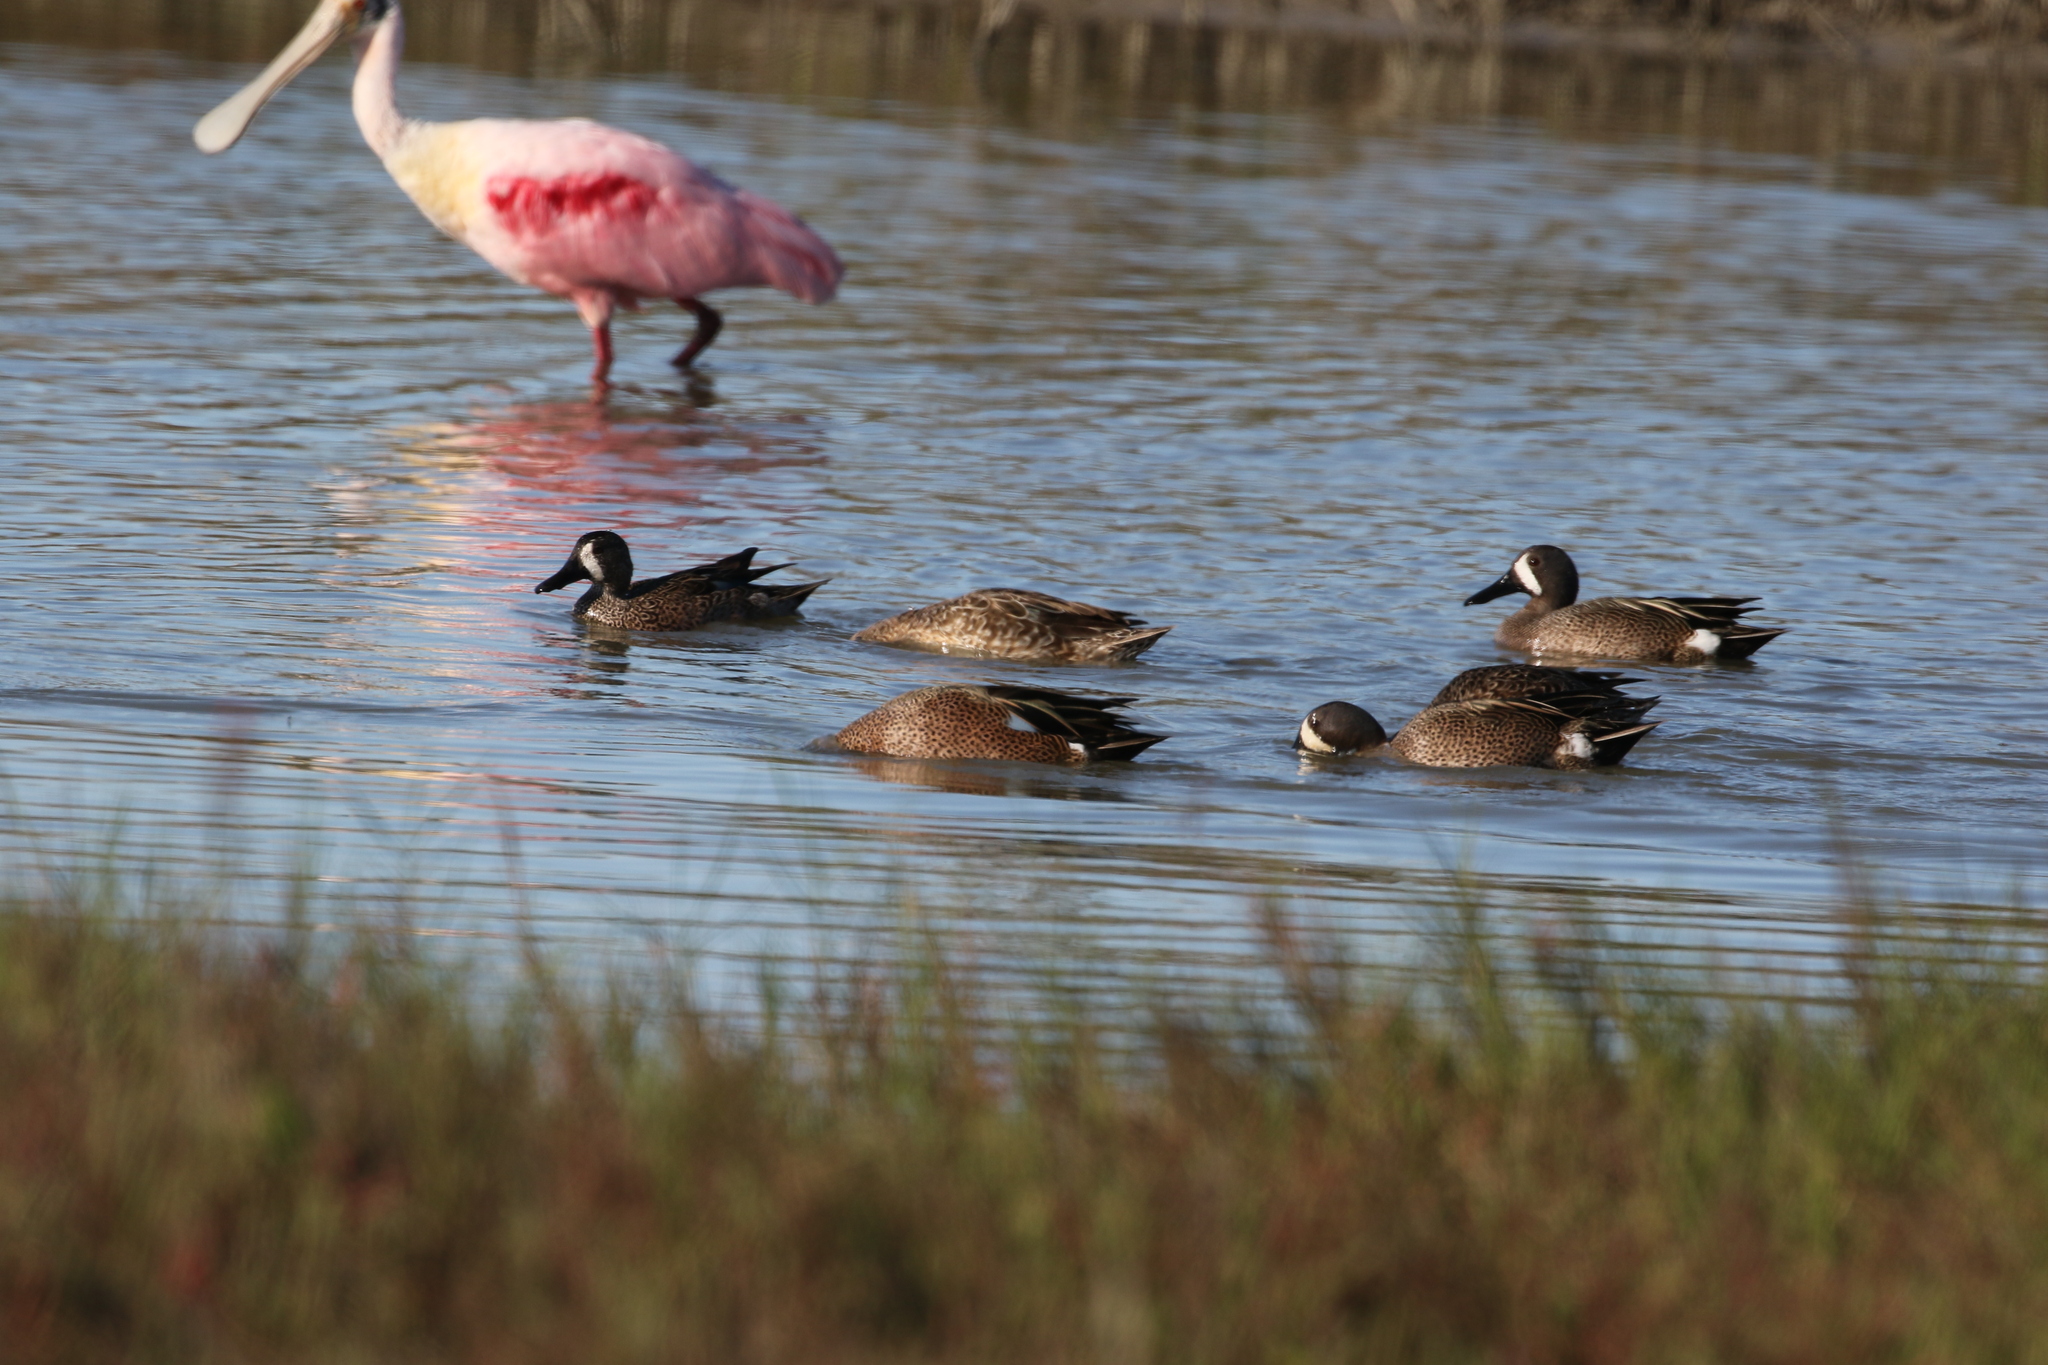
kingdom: Animalia
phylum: Chordata
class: Aves
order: Anseriformes
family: Anatidae
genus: Spatula
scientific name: Spatula discors
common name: Blue-winged teal
